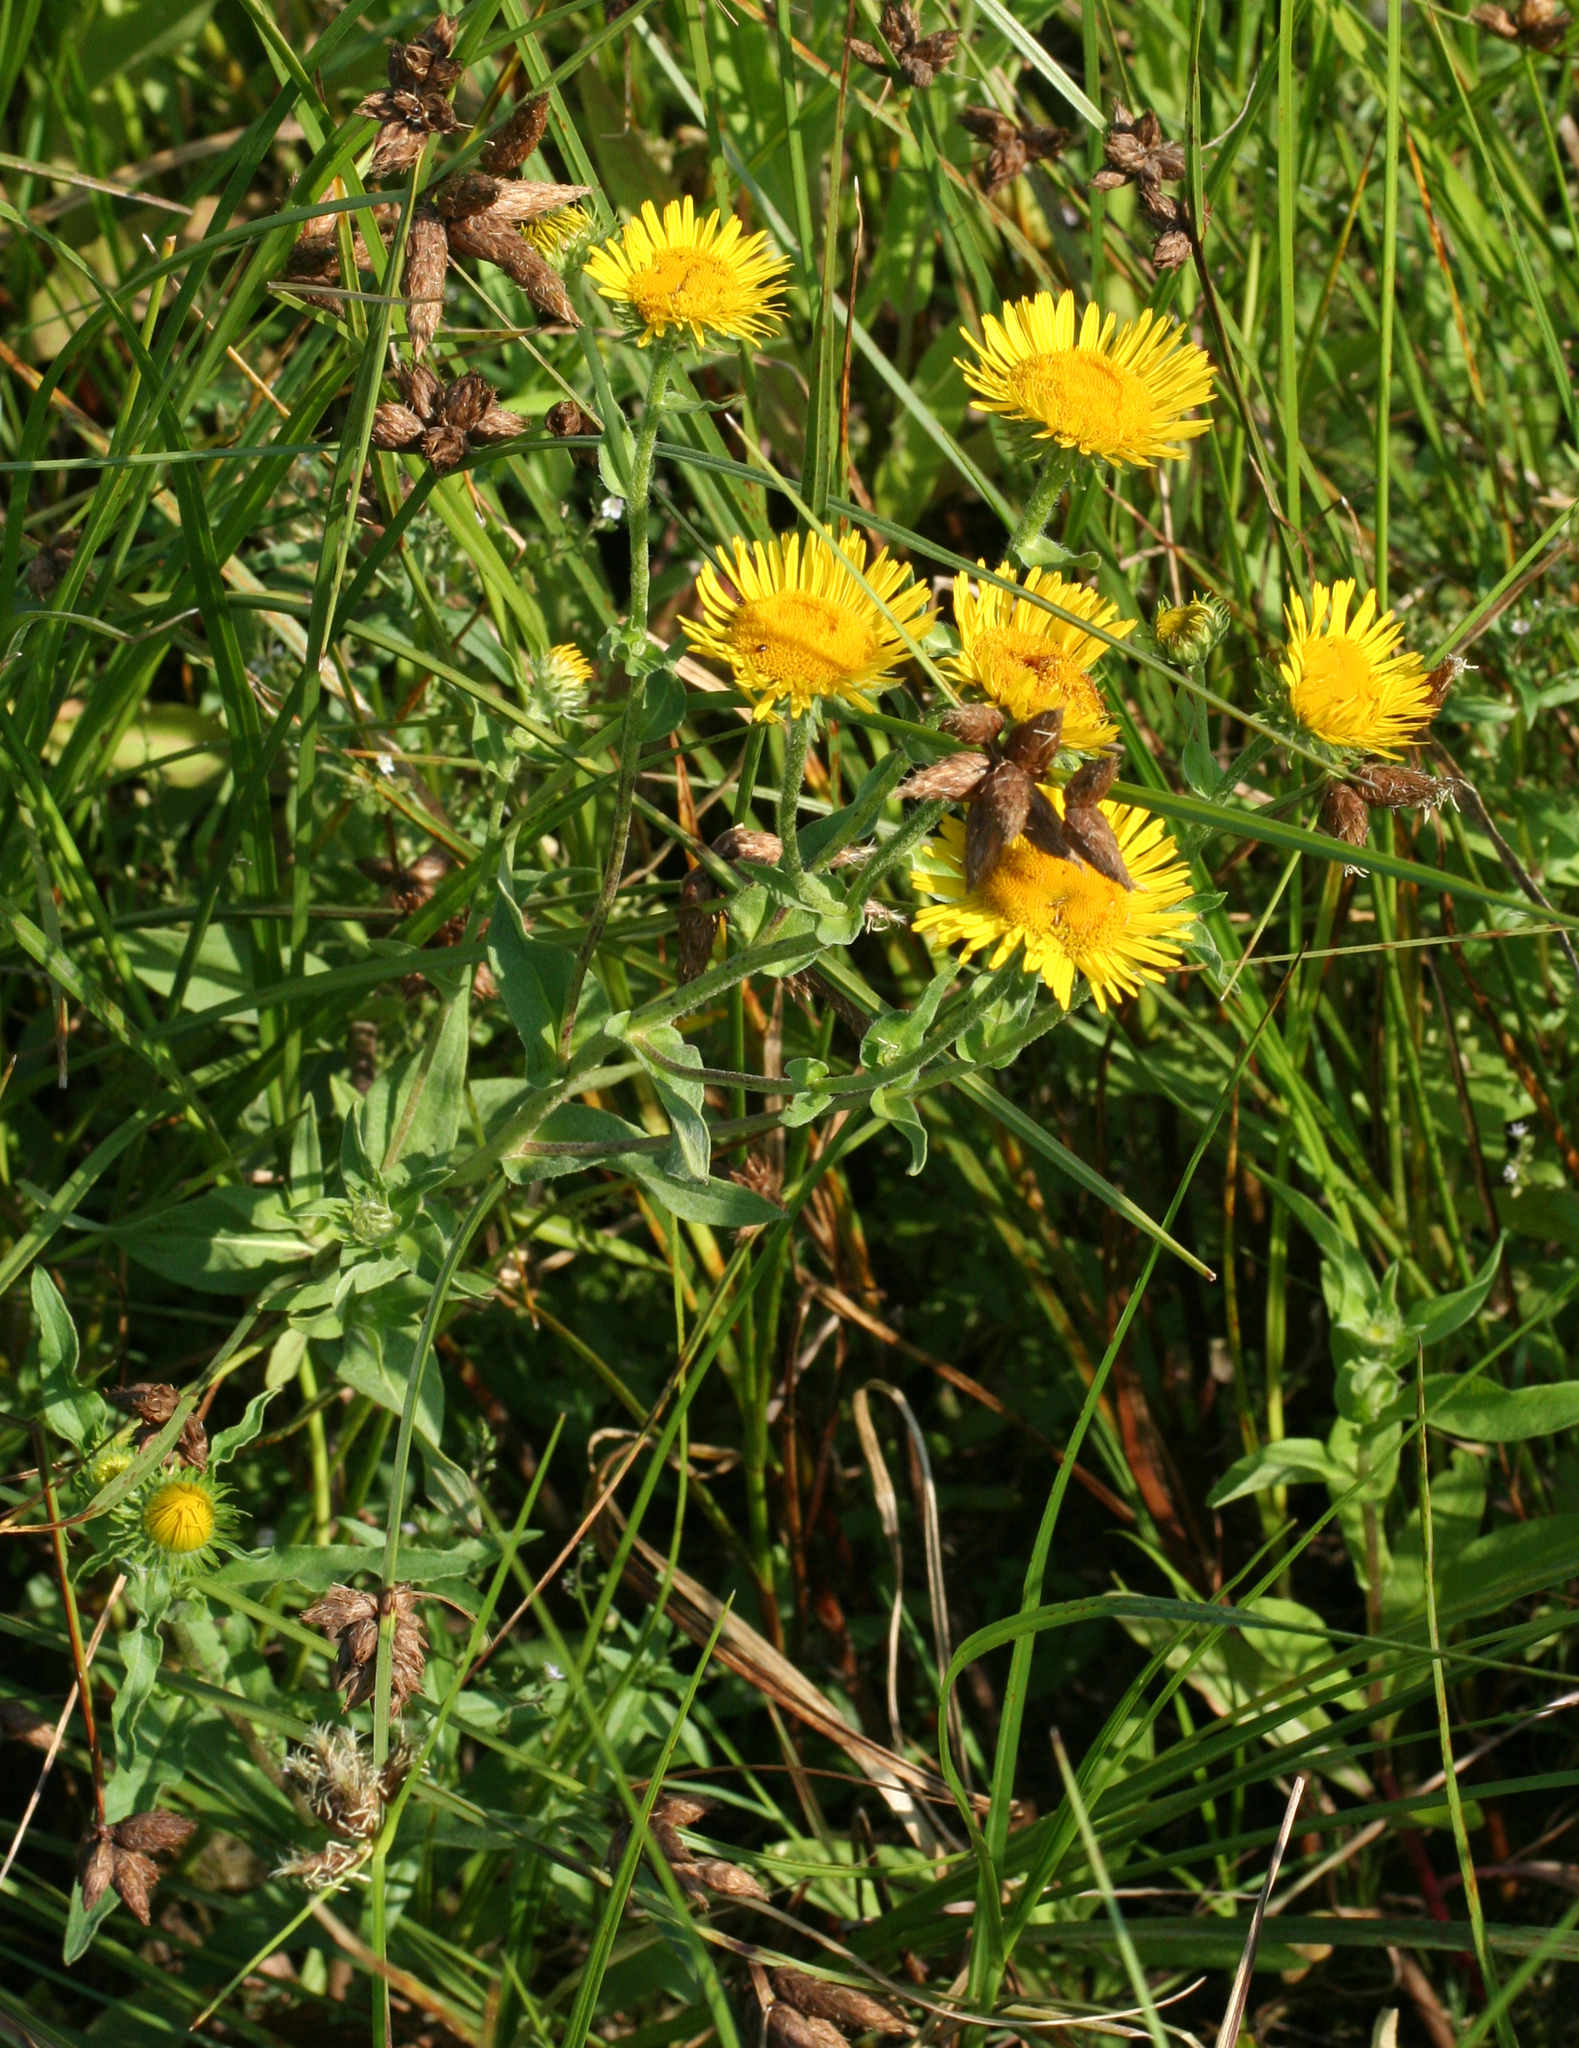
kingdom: Plantae
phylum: Tracheophyta
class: Magnoliopsida
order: Asterales
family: Asteraceae
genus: Pentanema
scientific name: Pentanema britannicum
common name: British elecampane
